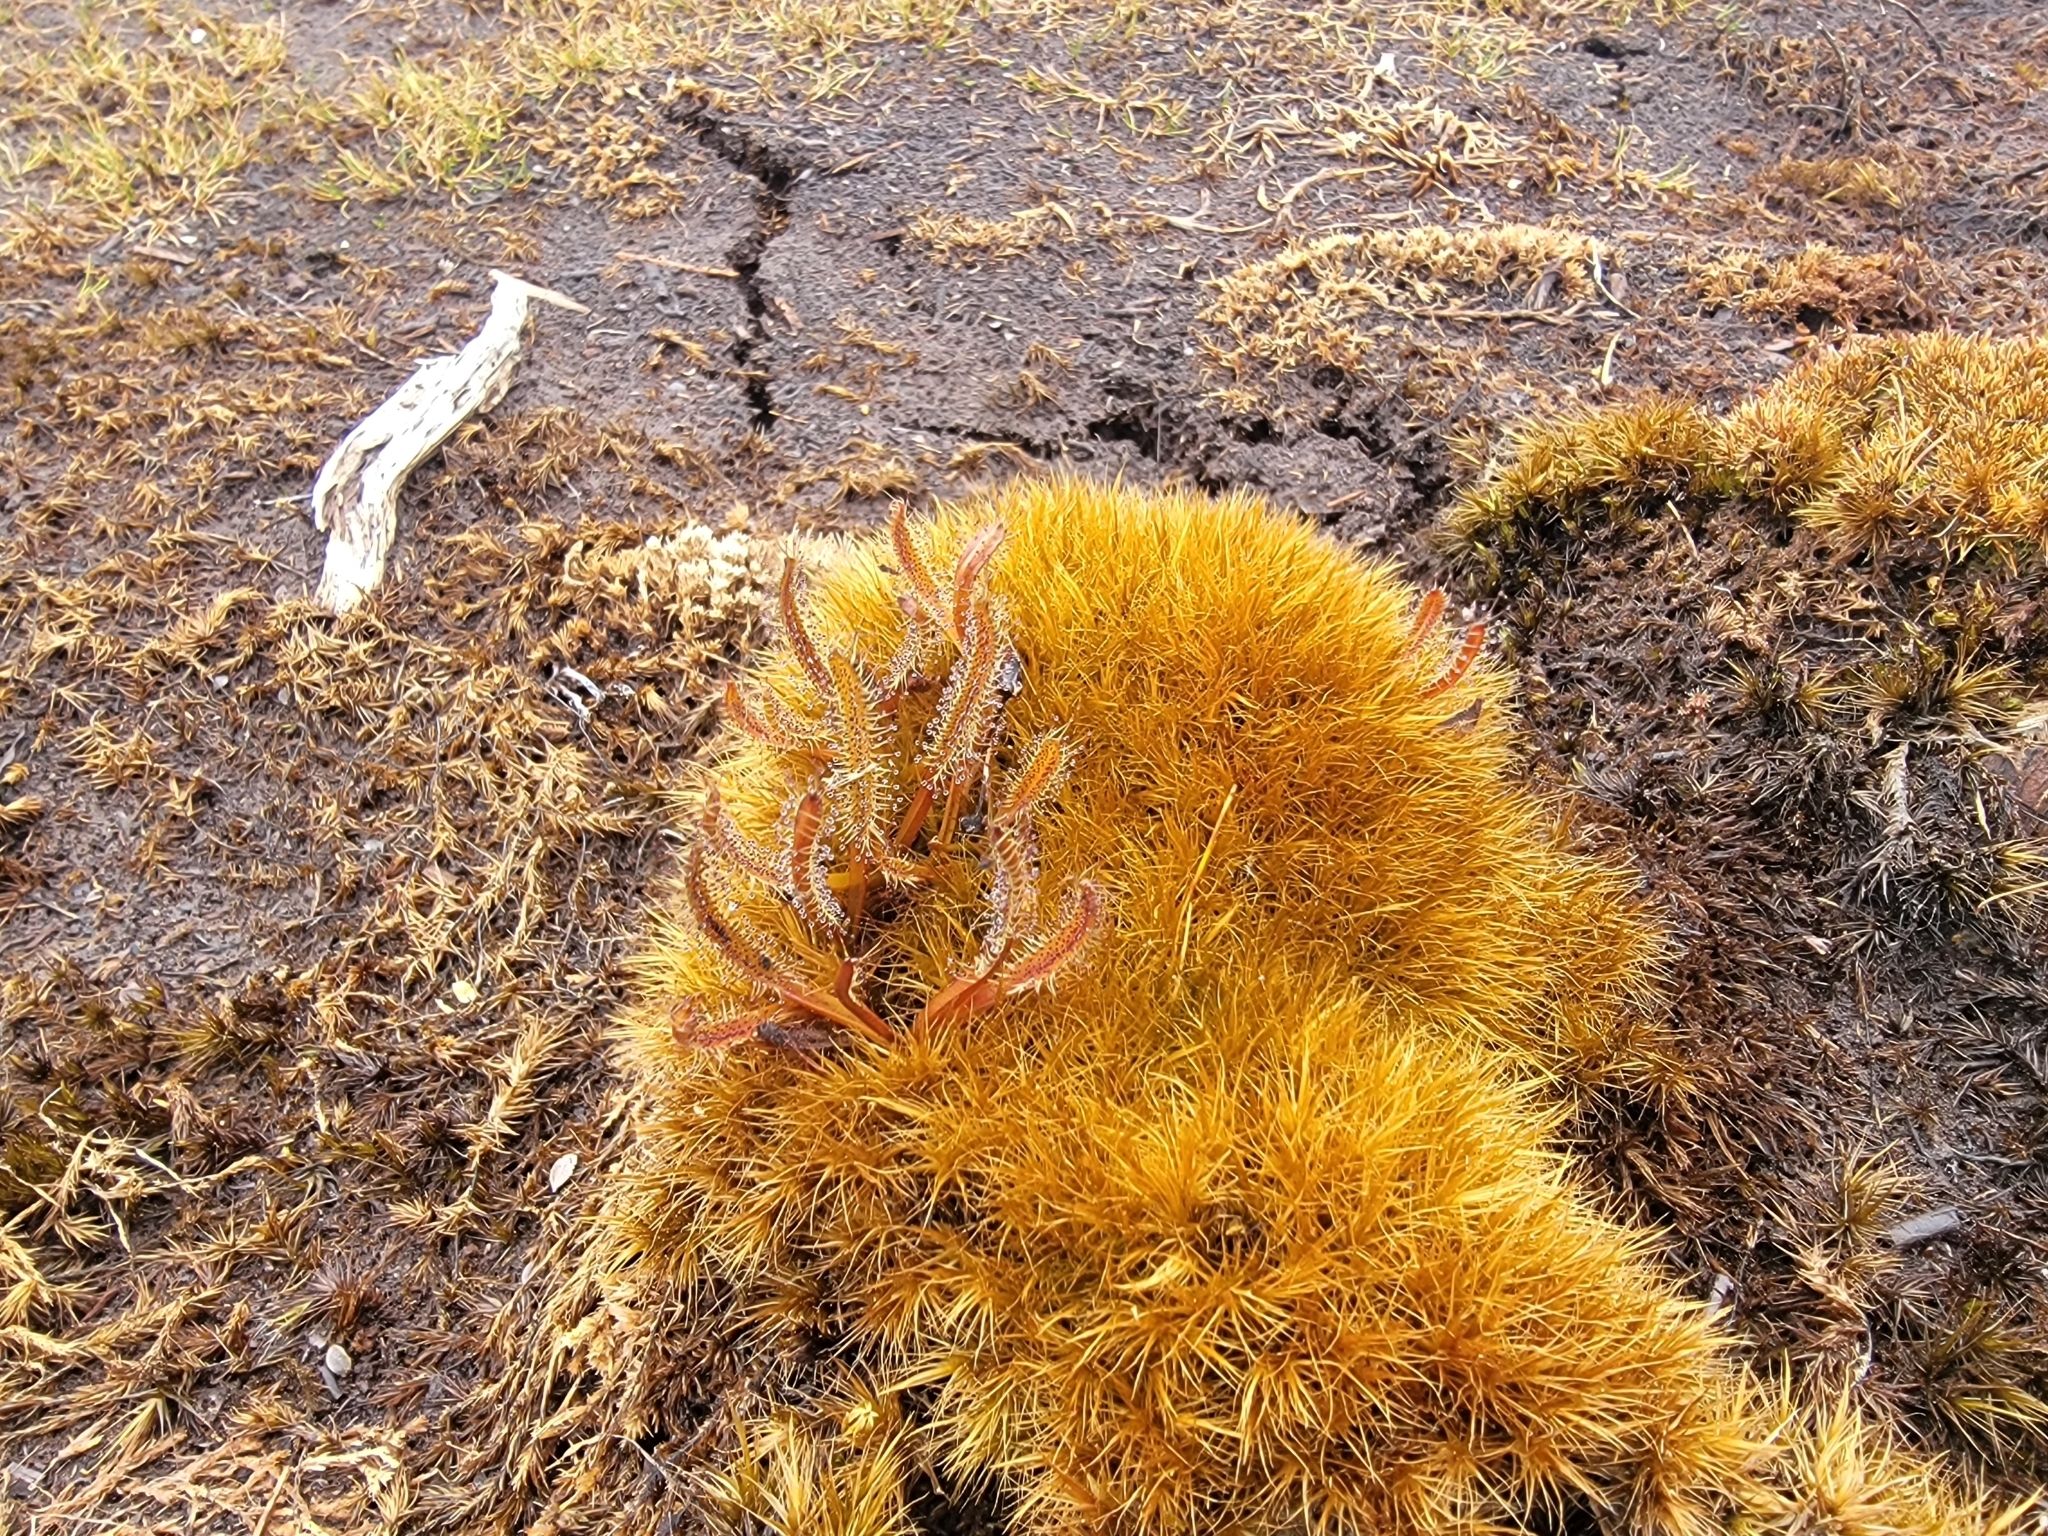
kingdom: Plantae
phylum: Tracheophyta
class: Magnoliopsida
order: Caryophyllales
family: Droseraceae
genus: Drosera
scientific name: Drosera arcturi
